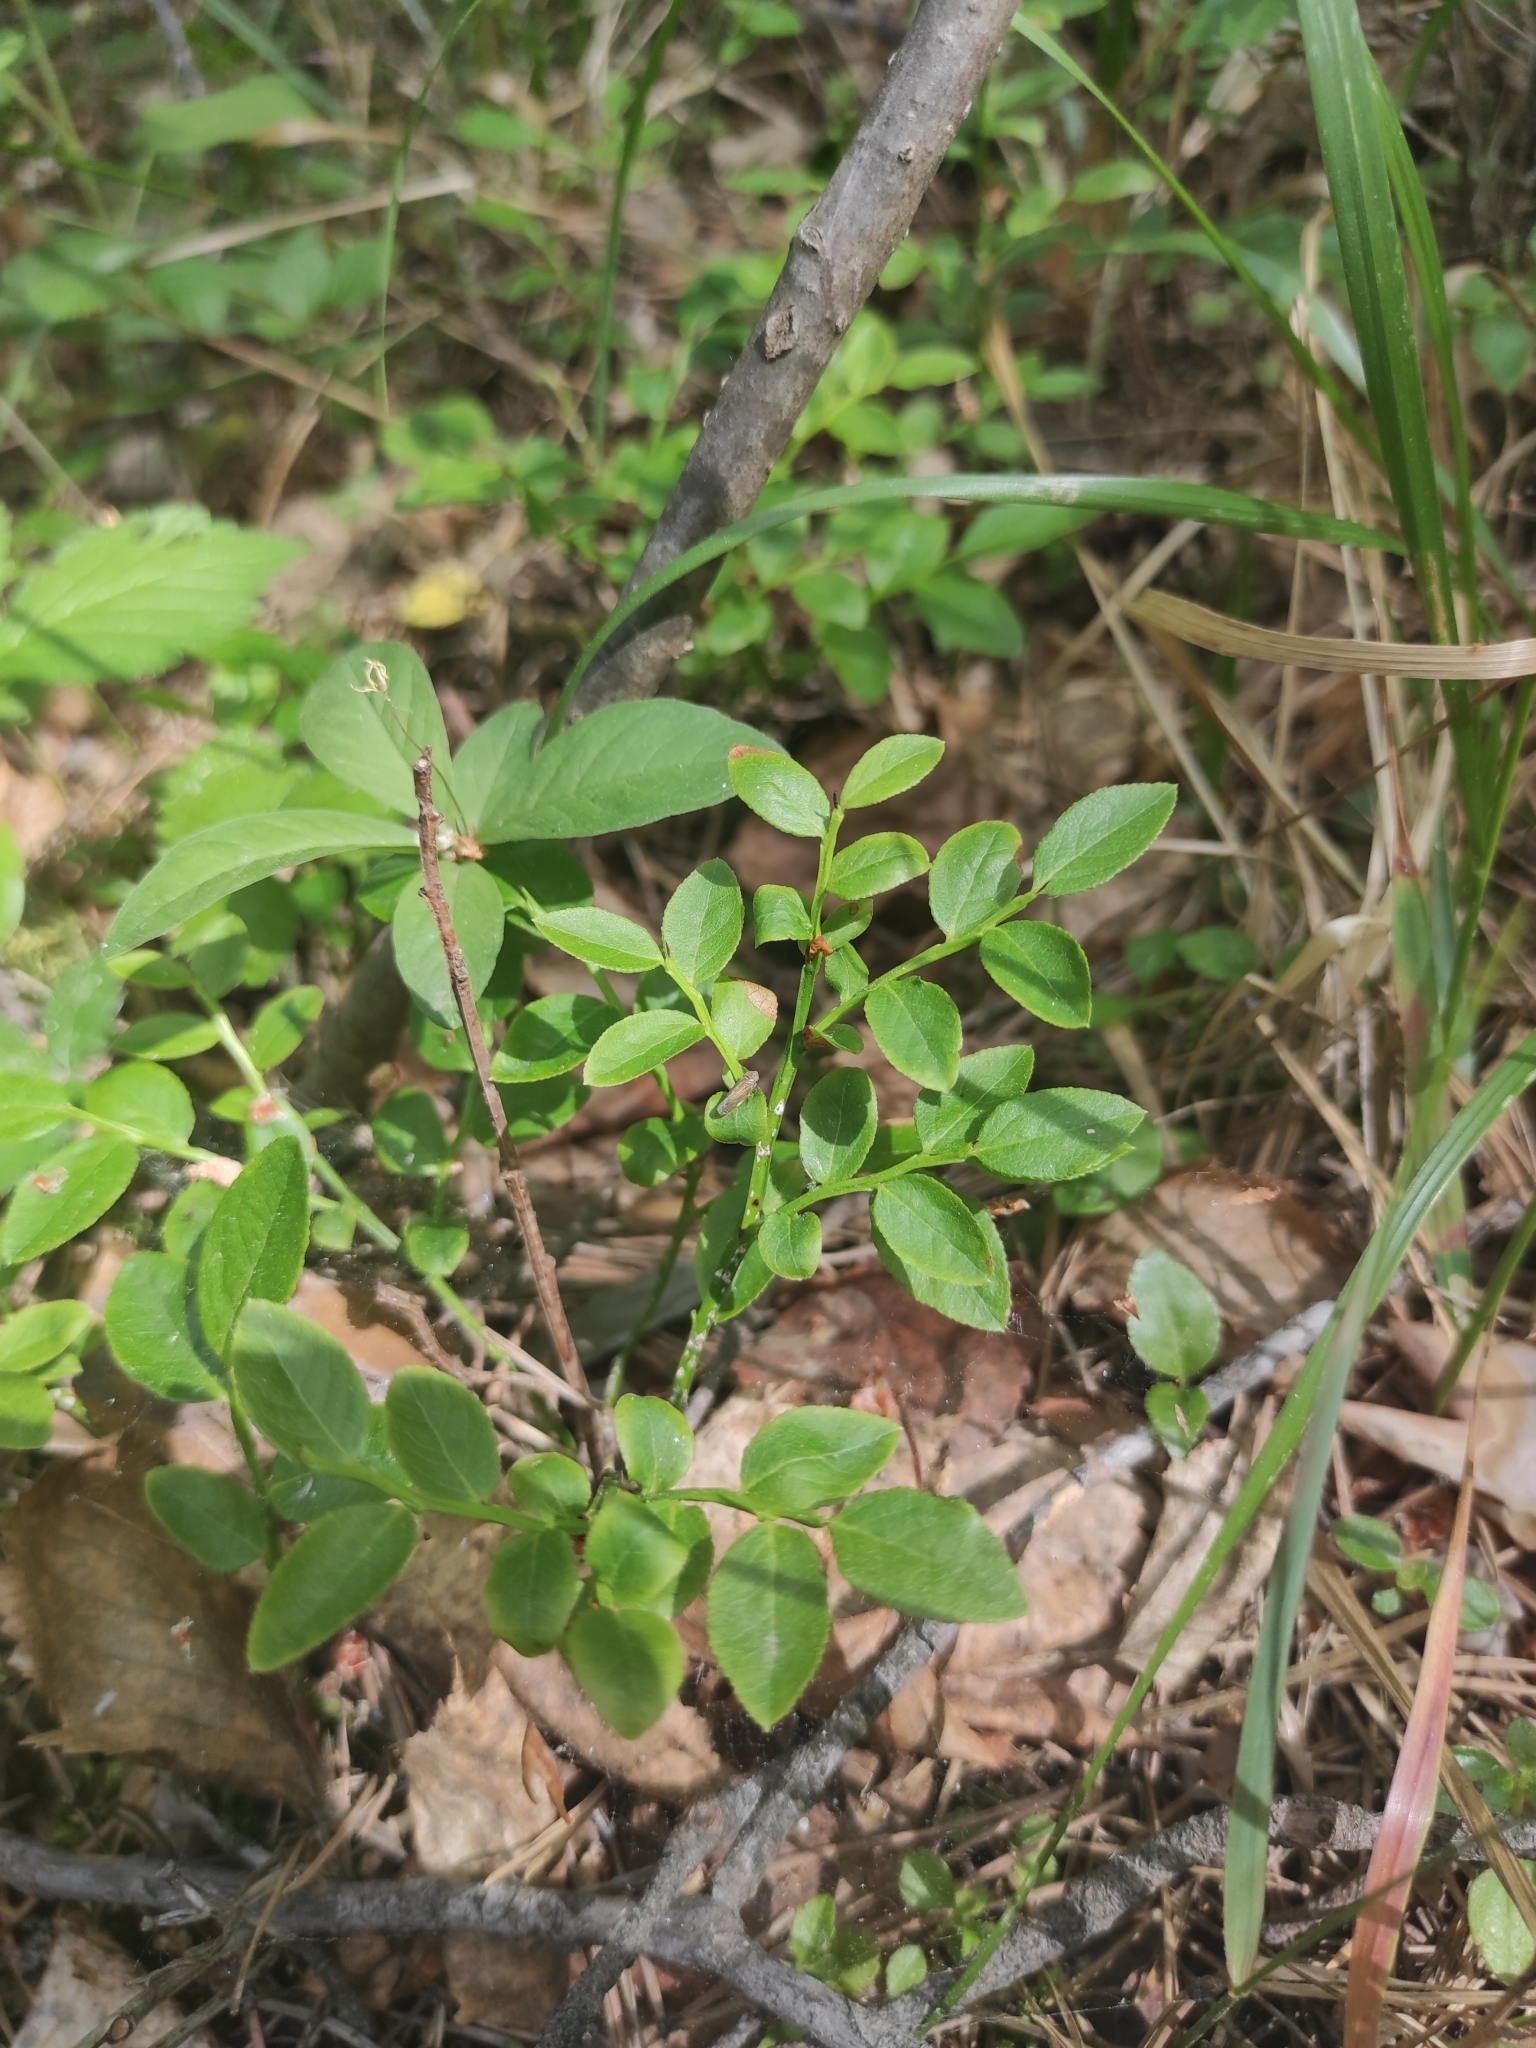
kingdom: Plantae
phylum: Tracheophyta
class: Magnoliopsida
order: Ericales
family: Ericaceae
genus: Vaccinium
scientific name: Vaccinium myrtillus
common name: Bilberry
